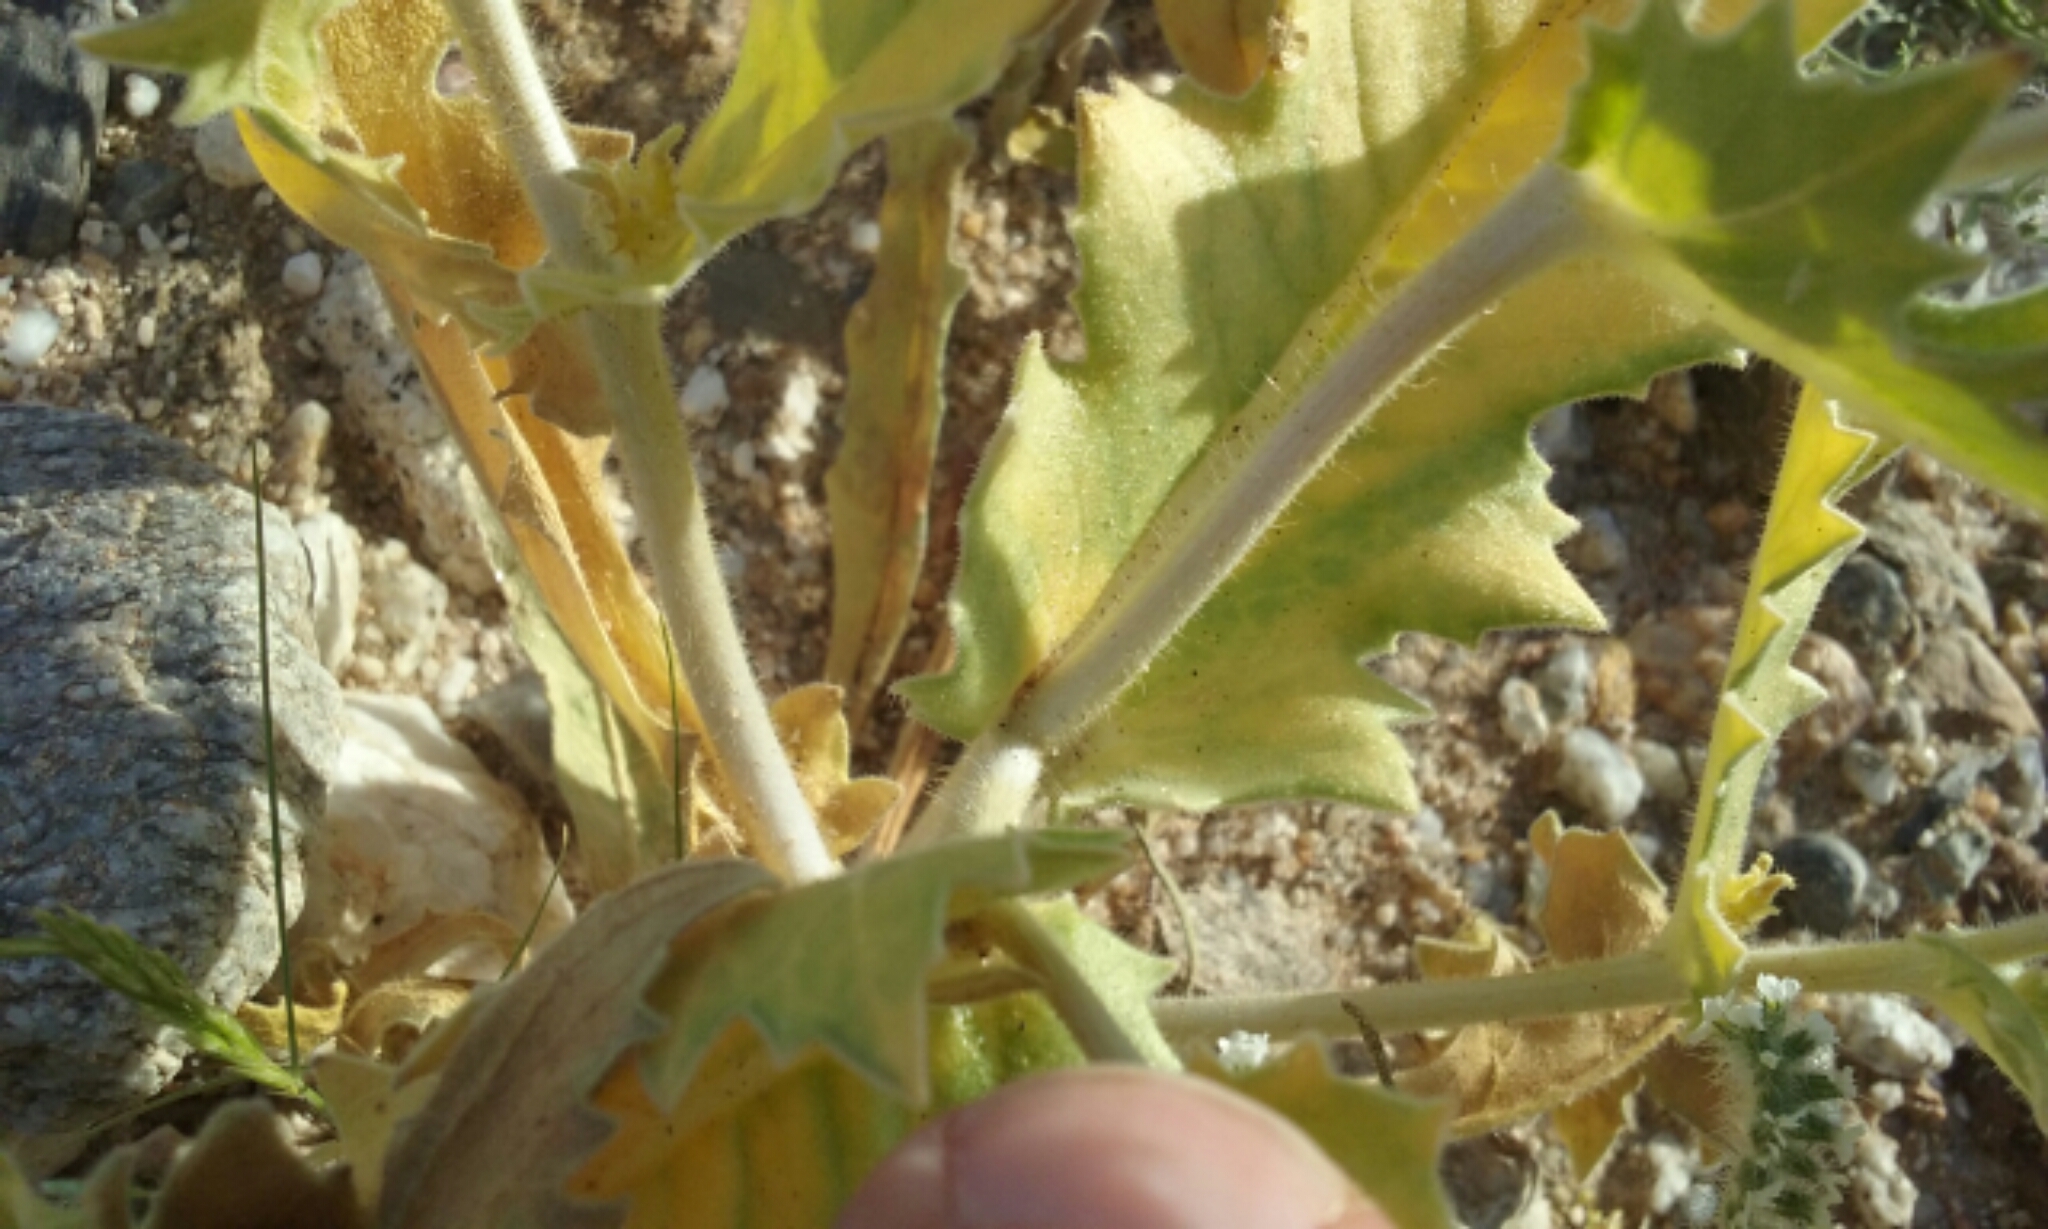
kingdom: Plantae
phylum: Tracheophyta
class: Magnoliopsida
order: Cornales
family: Loasaceae
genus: Mentzelia
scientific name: Mentzelia involucrata
